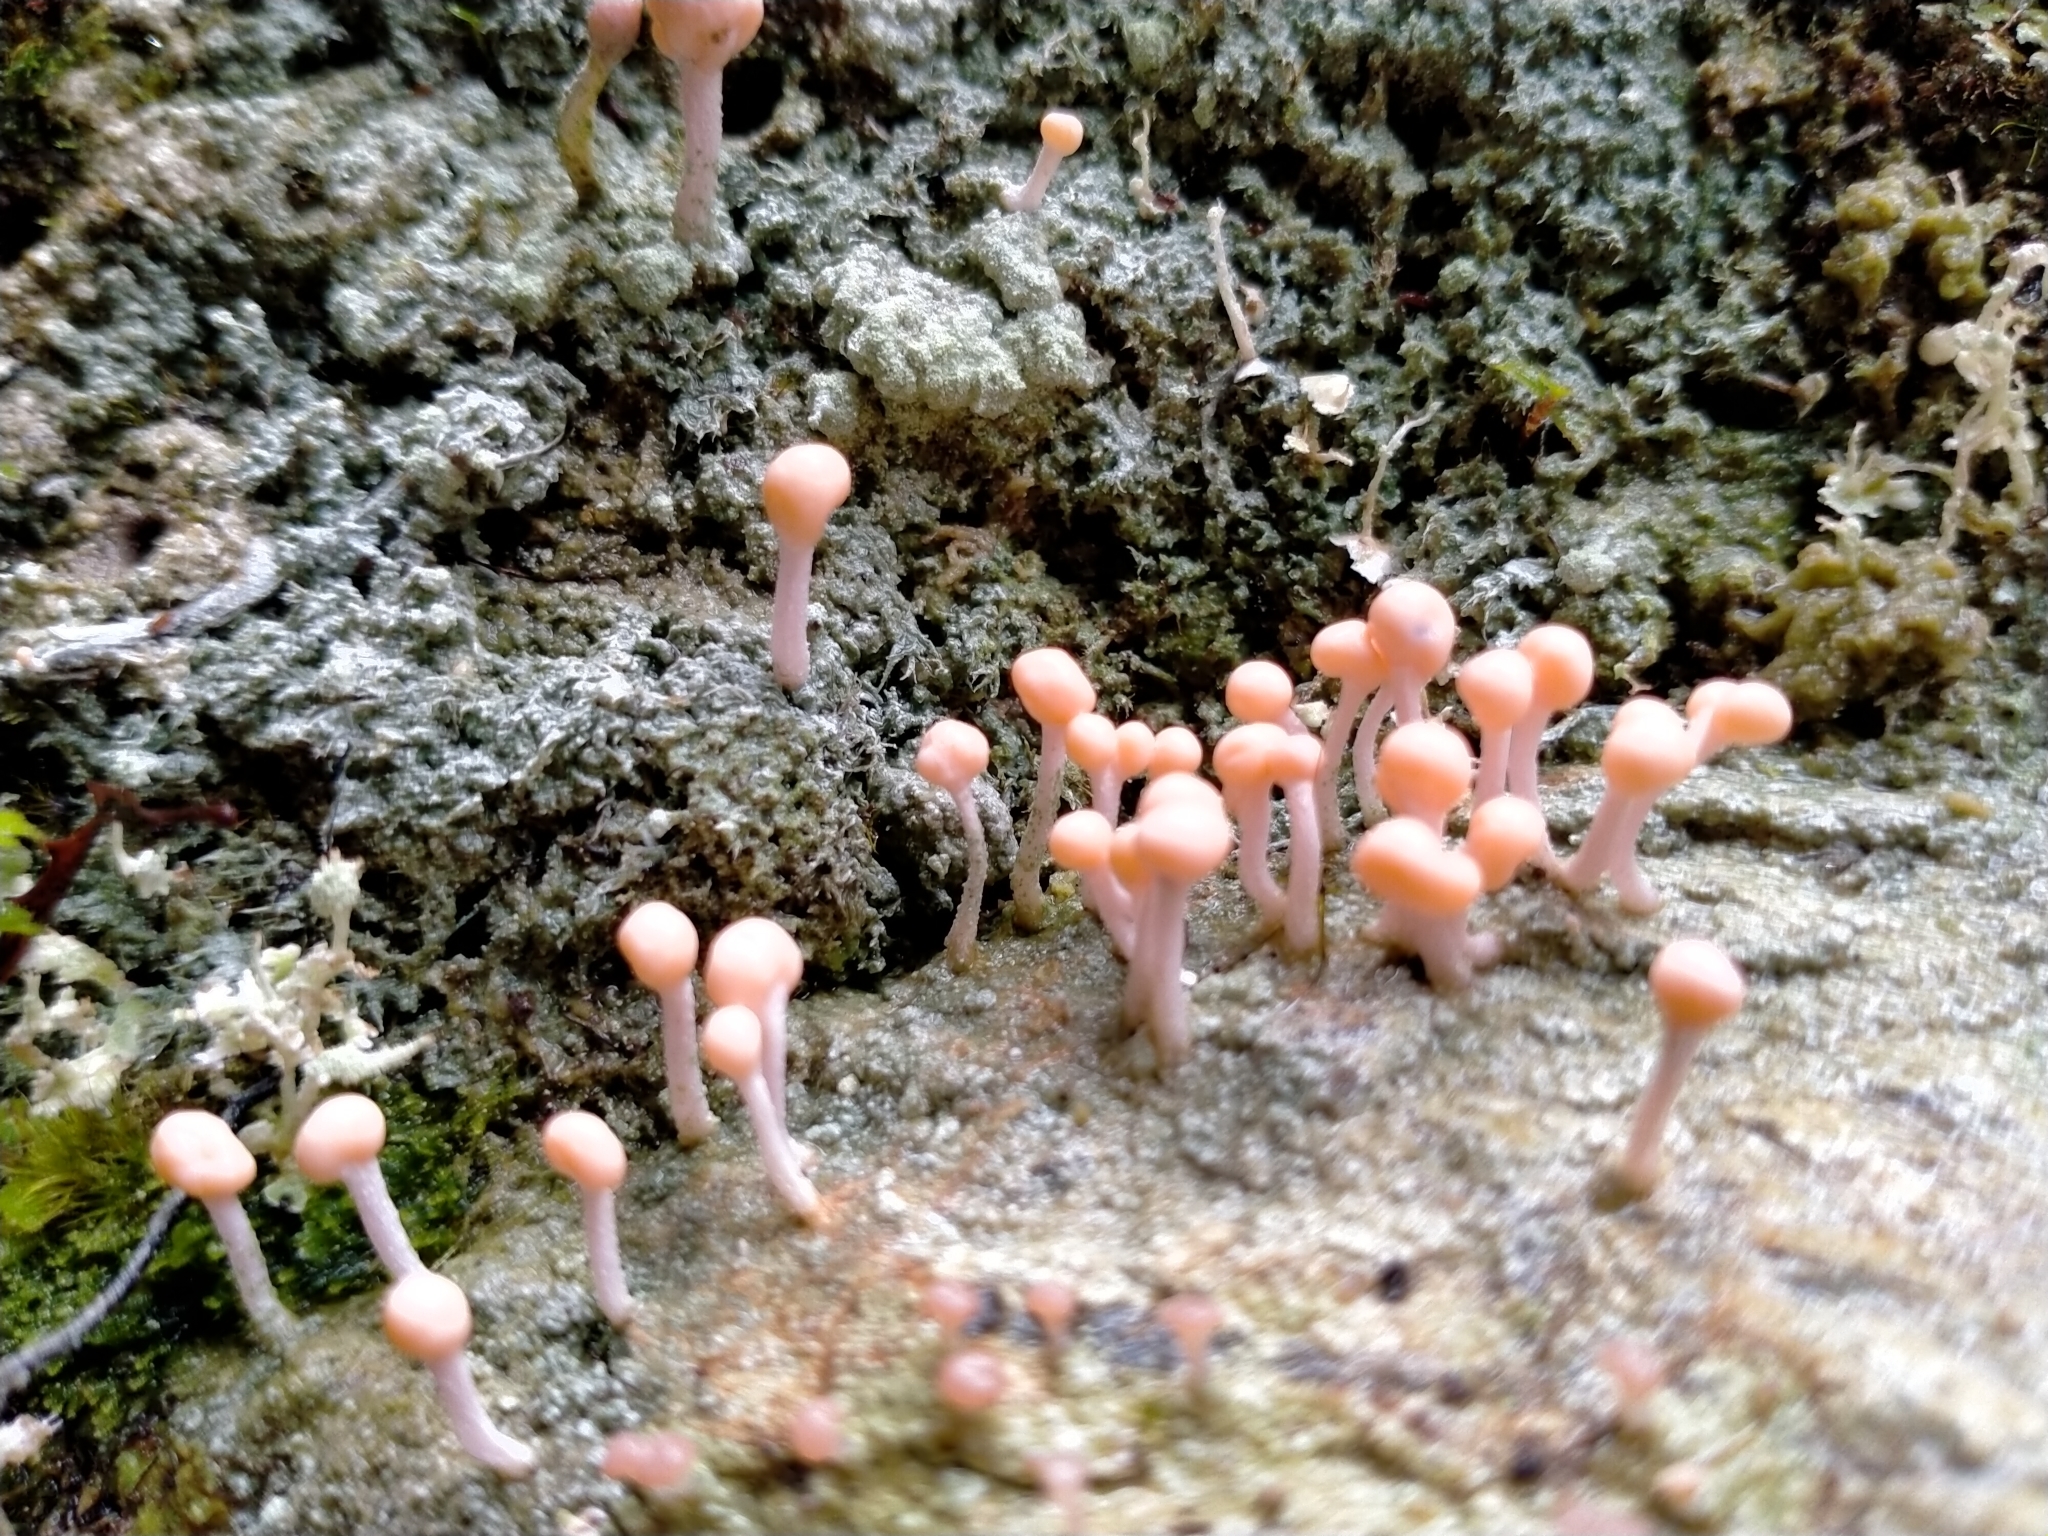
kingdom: Fungi
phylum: Ascomycota
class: Lecanoromycetes
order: Pertusariales
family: Icmadophilaceae
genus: Dibaeis
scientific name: Dibaeis arcuata
